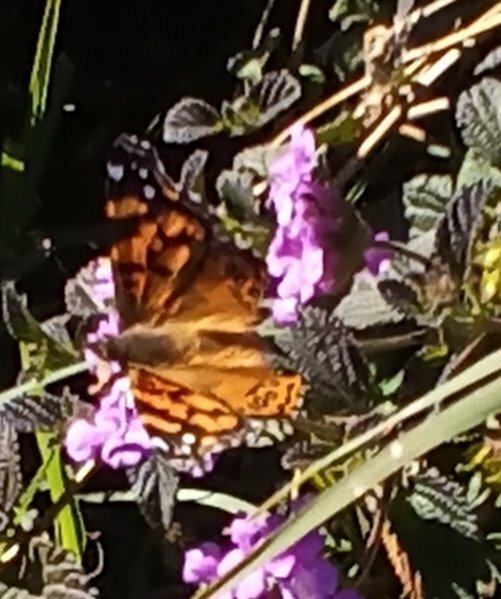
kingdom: Animalia
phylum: Arthropoda
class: Insecta
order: Lepidoptera
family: Nymphalidae
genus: Vanessa
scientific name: Vanessa annabella
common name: West coast lady
